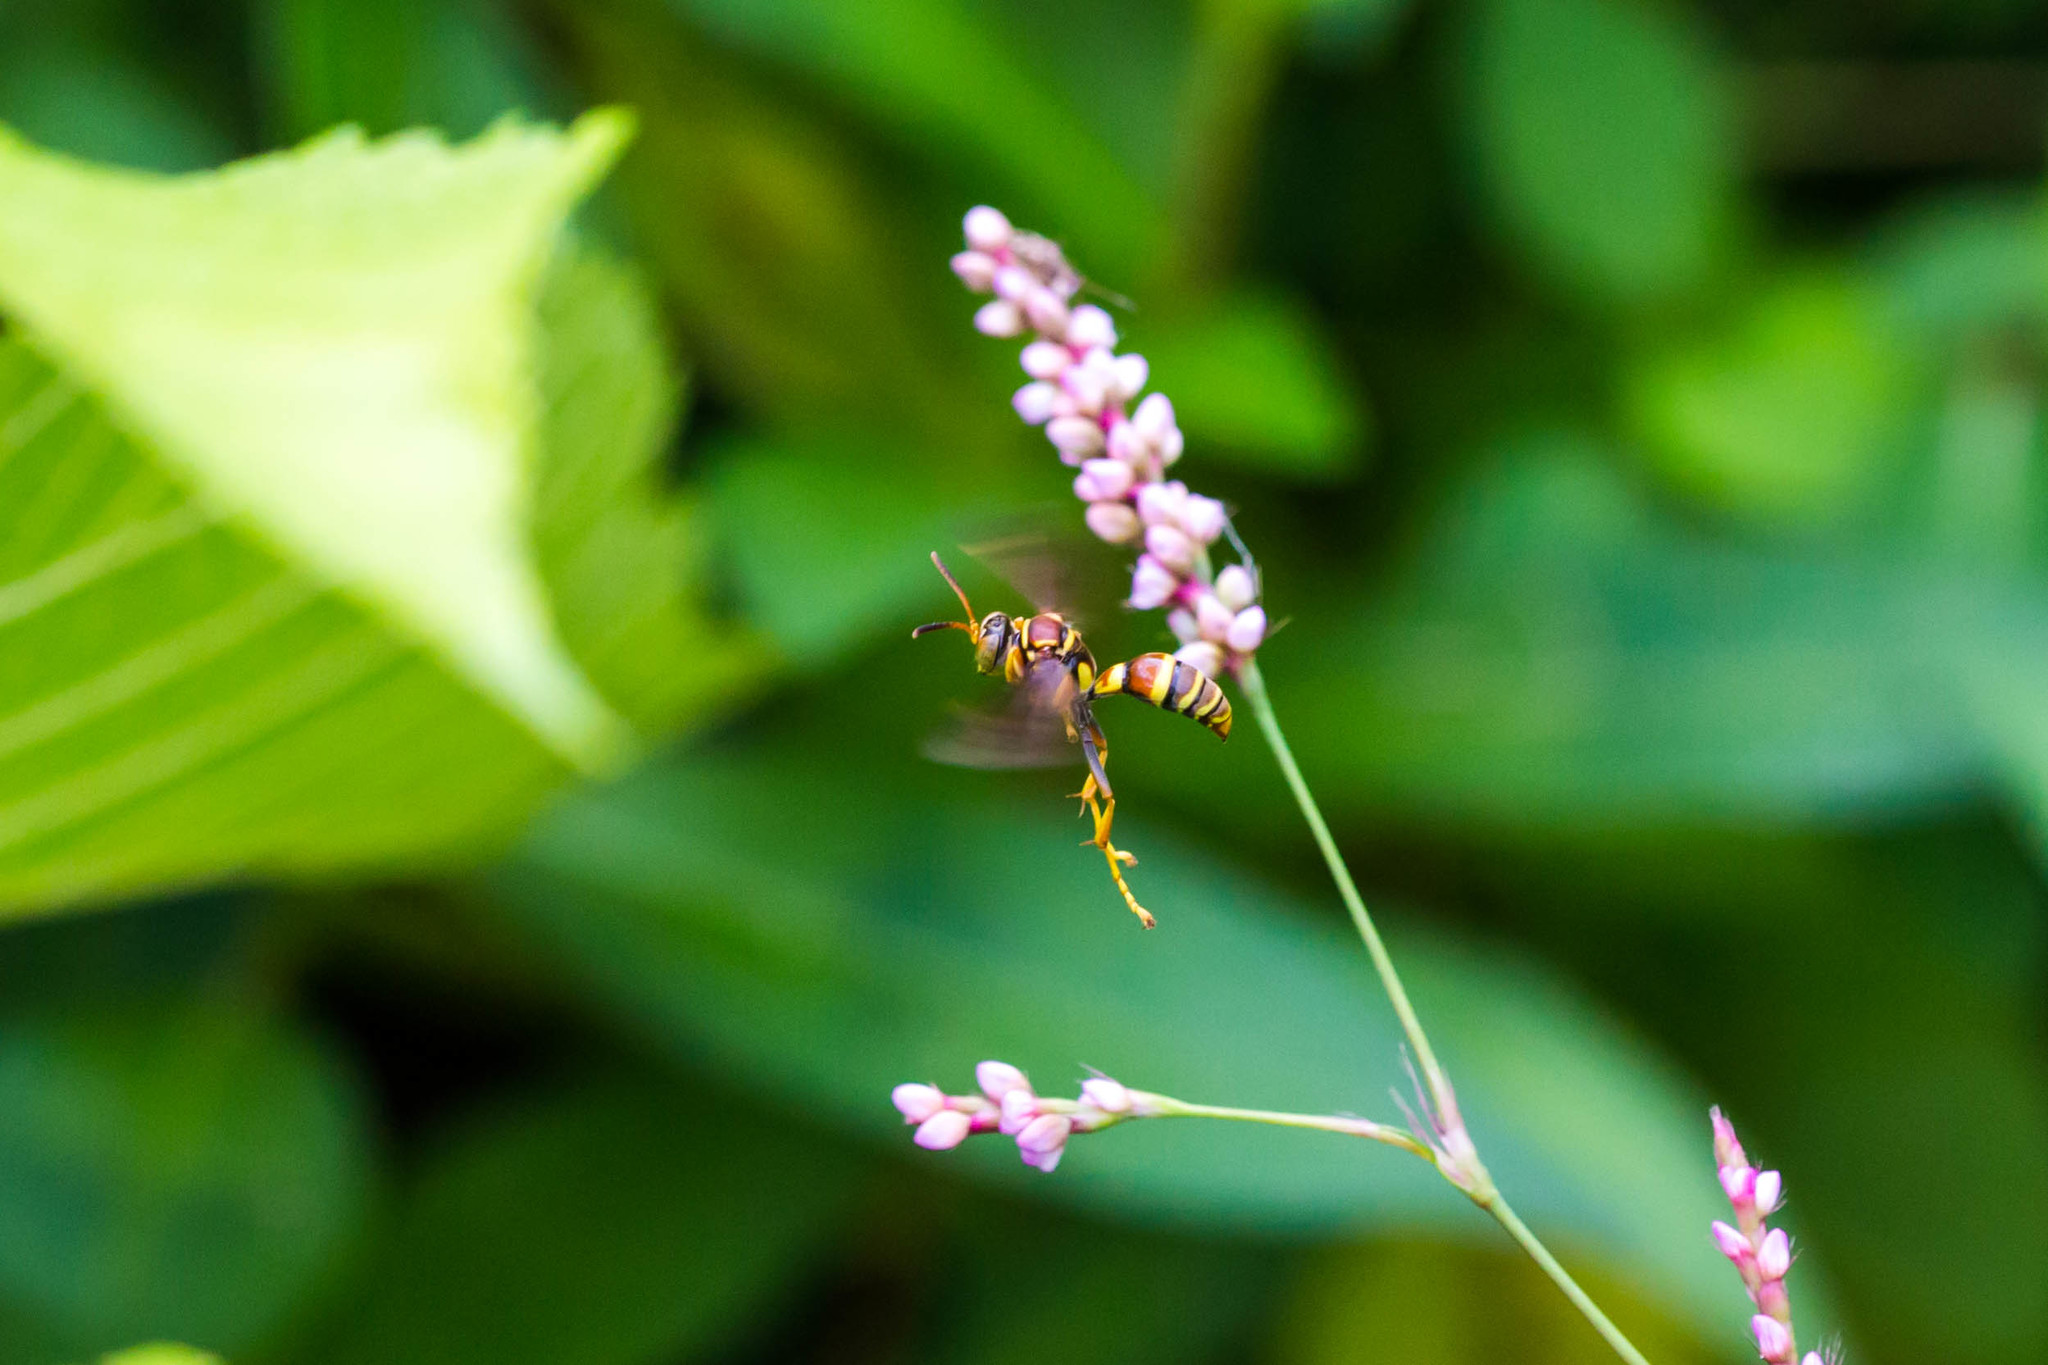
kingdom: Animalia
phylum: Arthropoda
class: Insecta
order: Hymenoptera
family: Crabronidae
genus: Saygorytes
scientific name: Saygorytes
